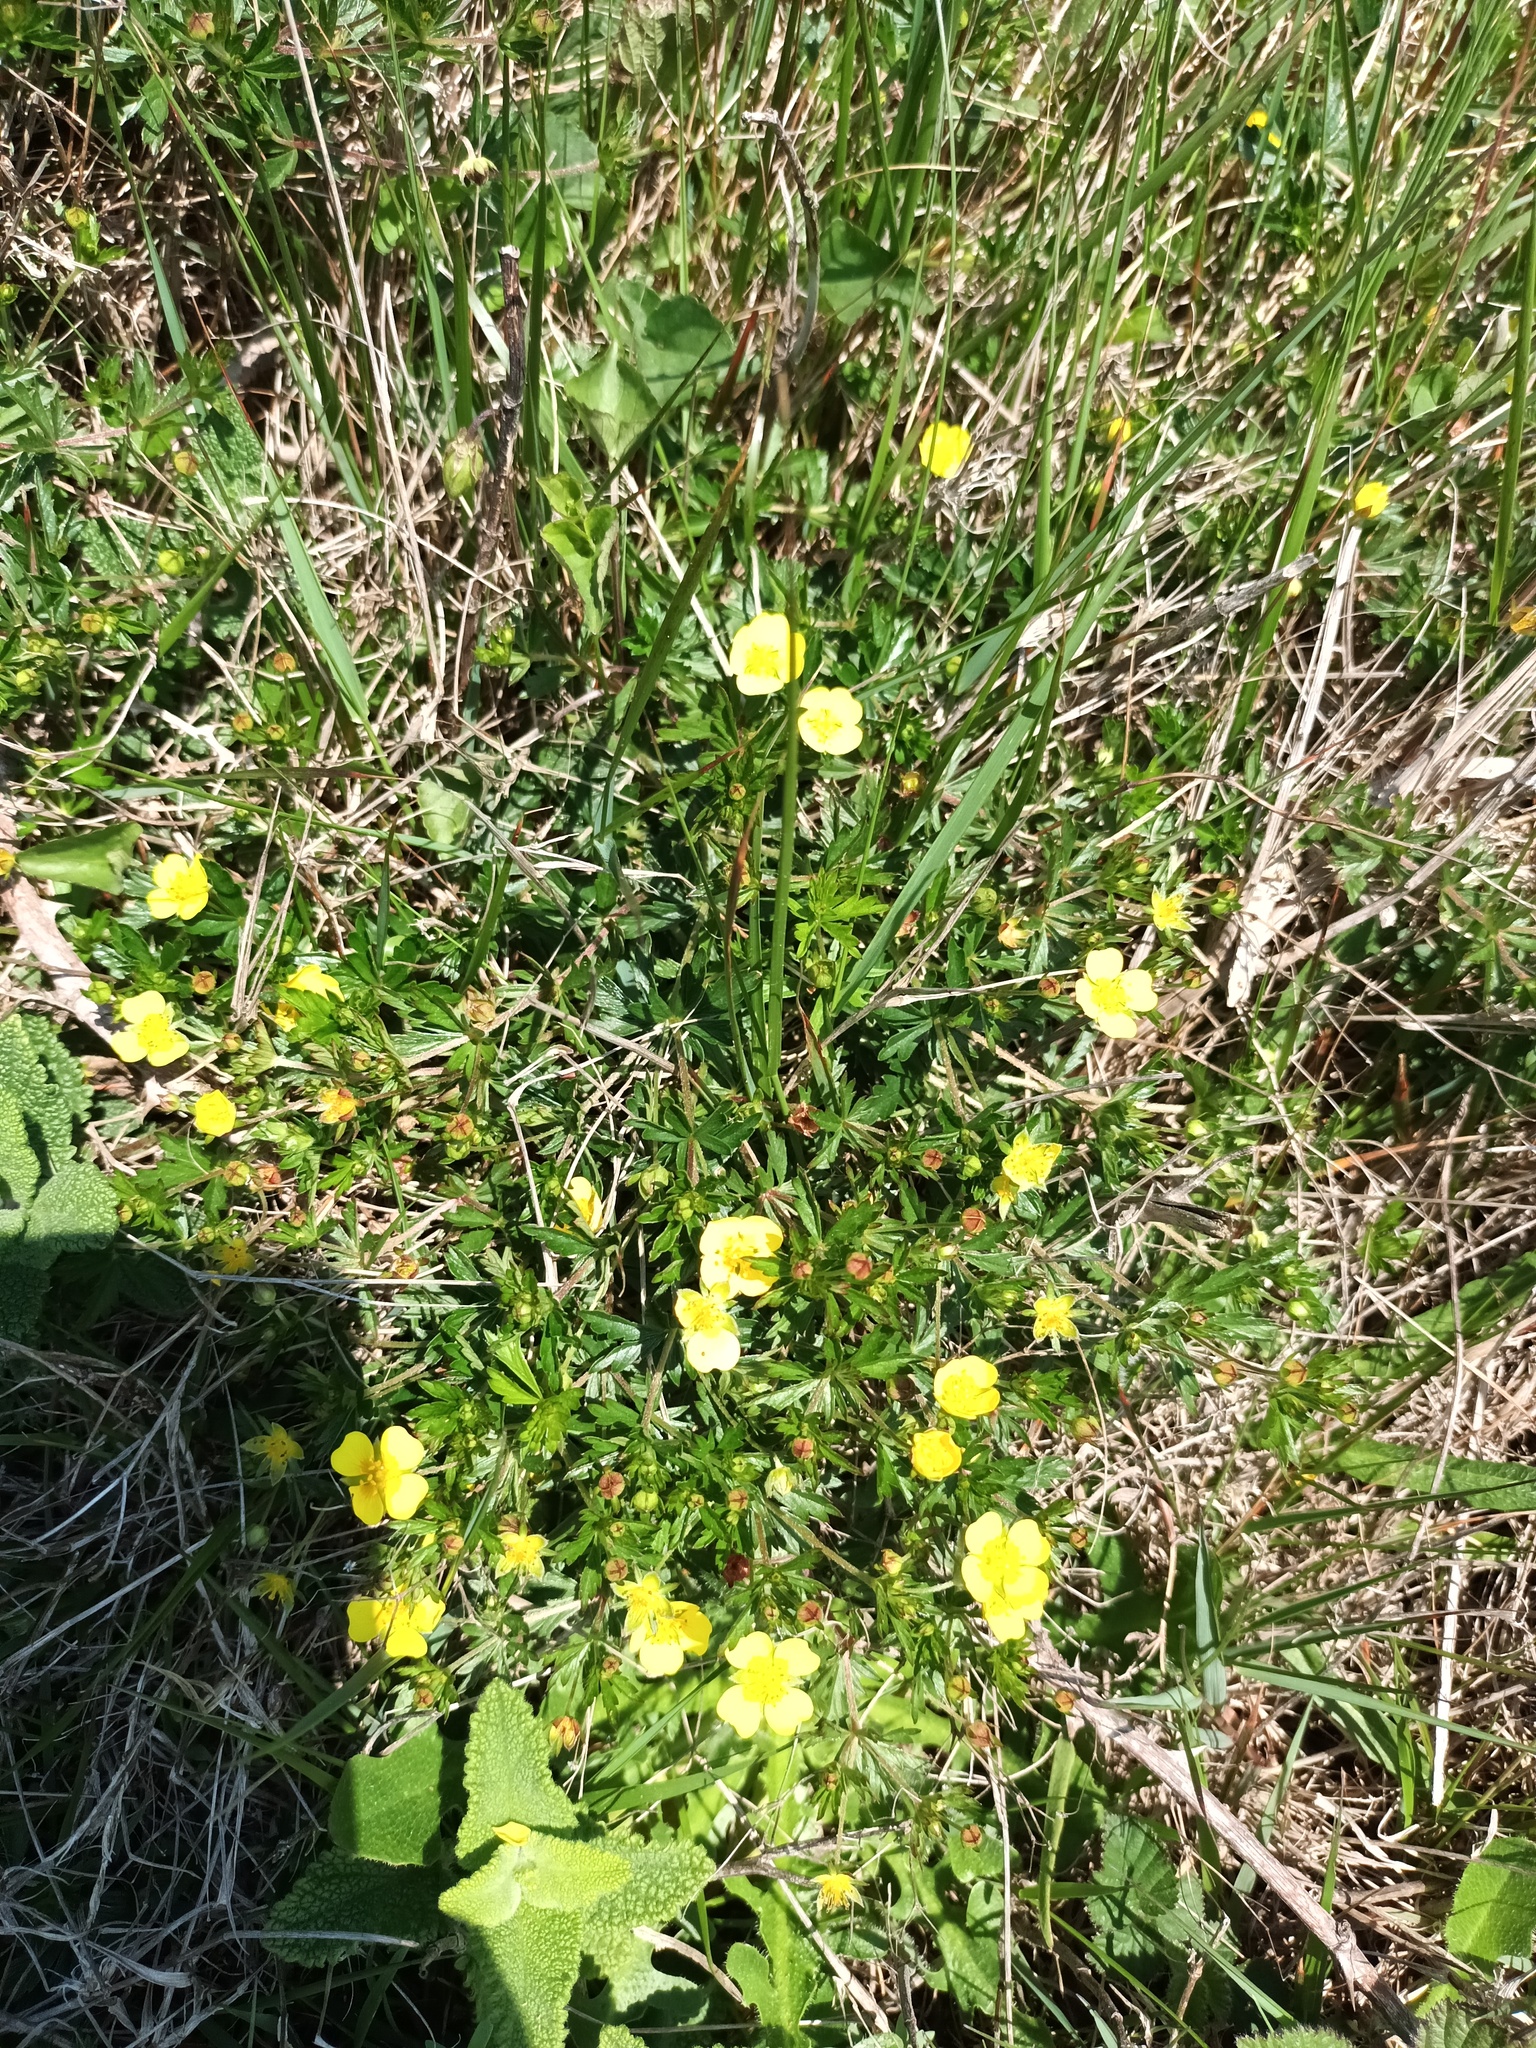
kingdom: Plantae
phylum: Tracheophyta
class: Magnoliopsida
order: Rosales
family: Rosaceae
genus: Potentilla
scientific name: Potentilla erecta
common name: Tormentil
